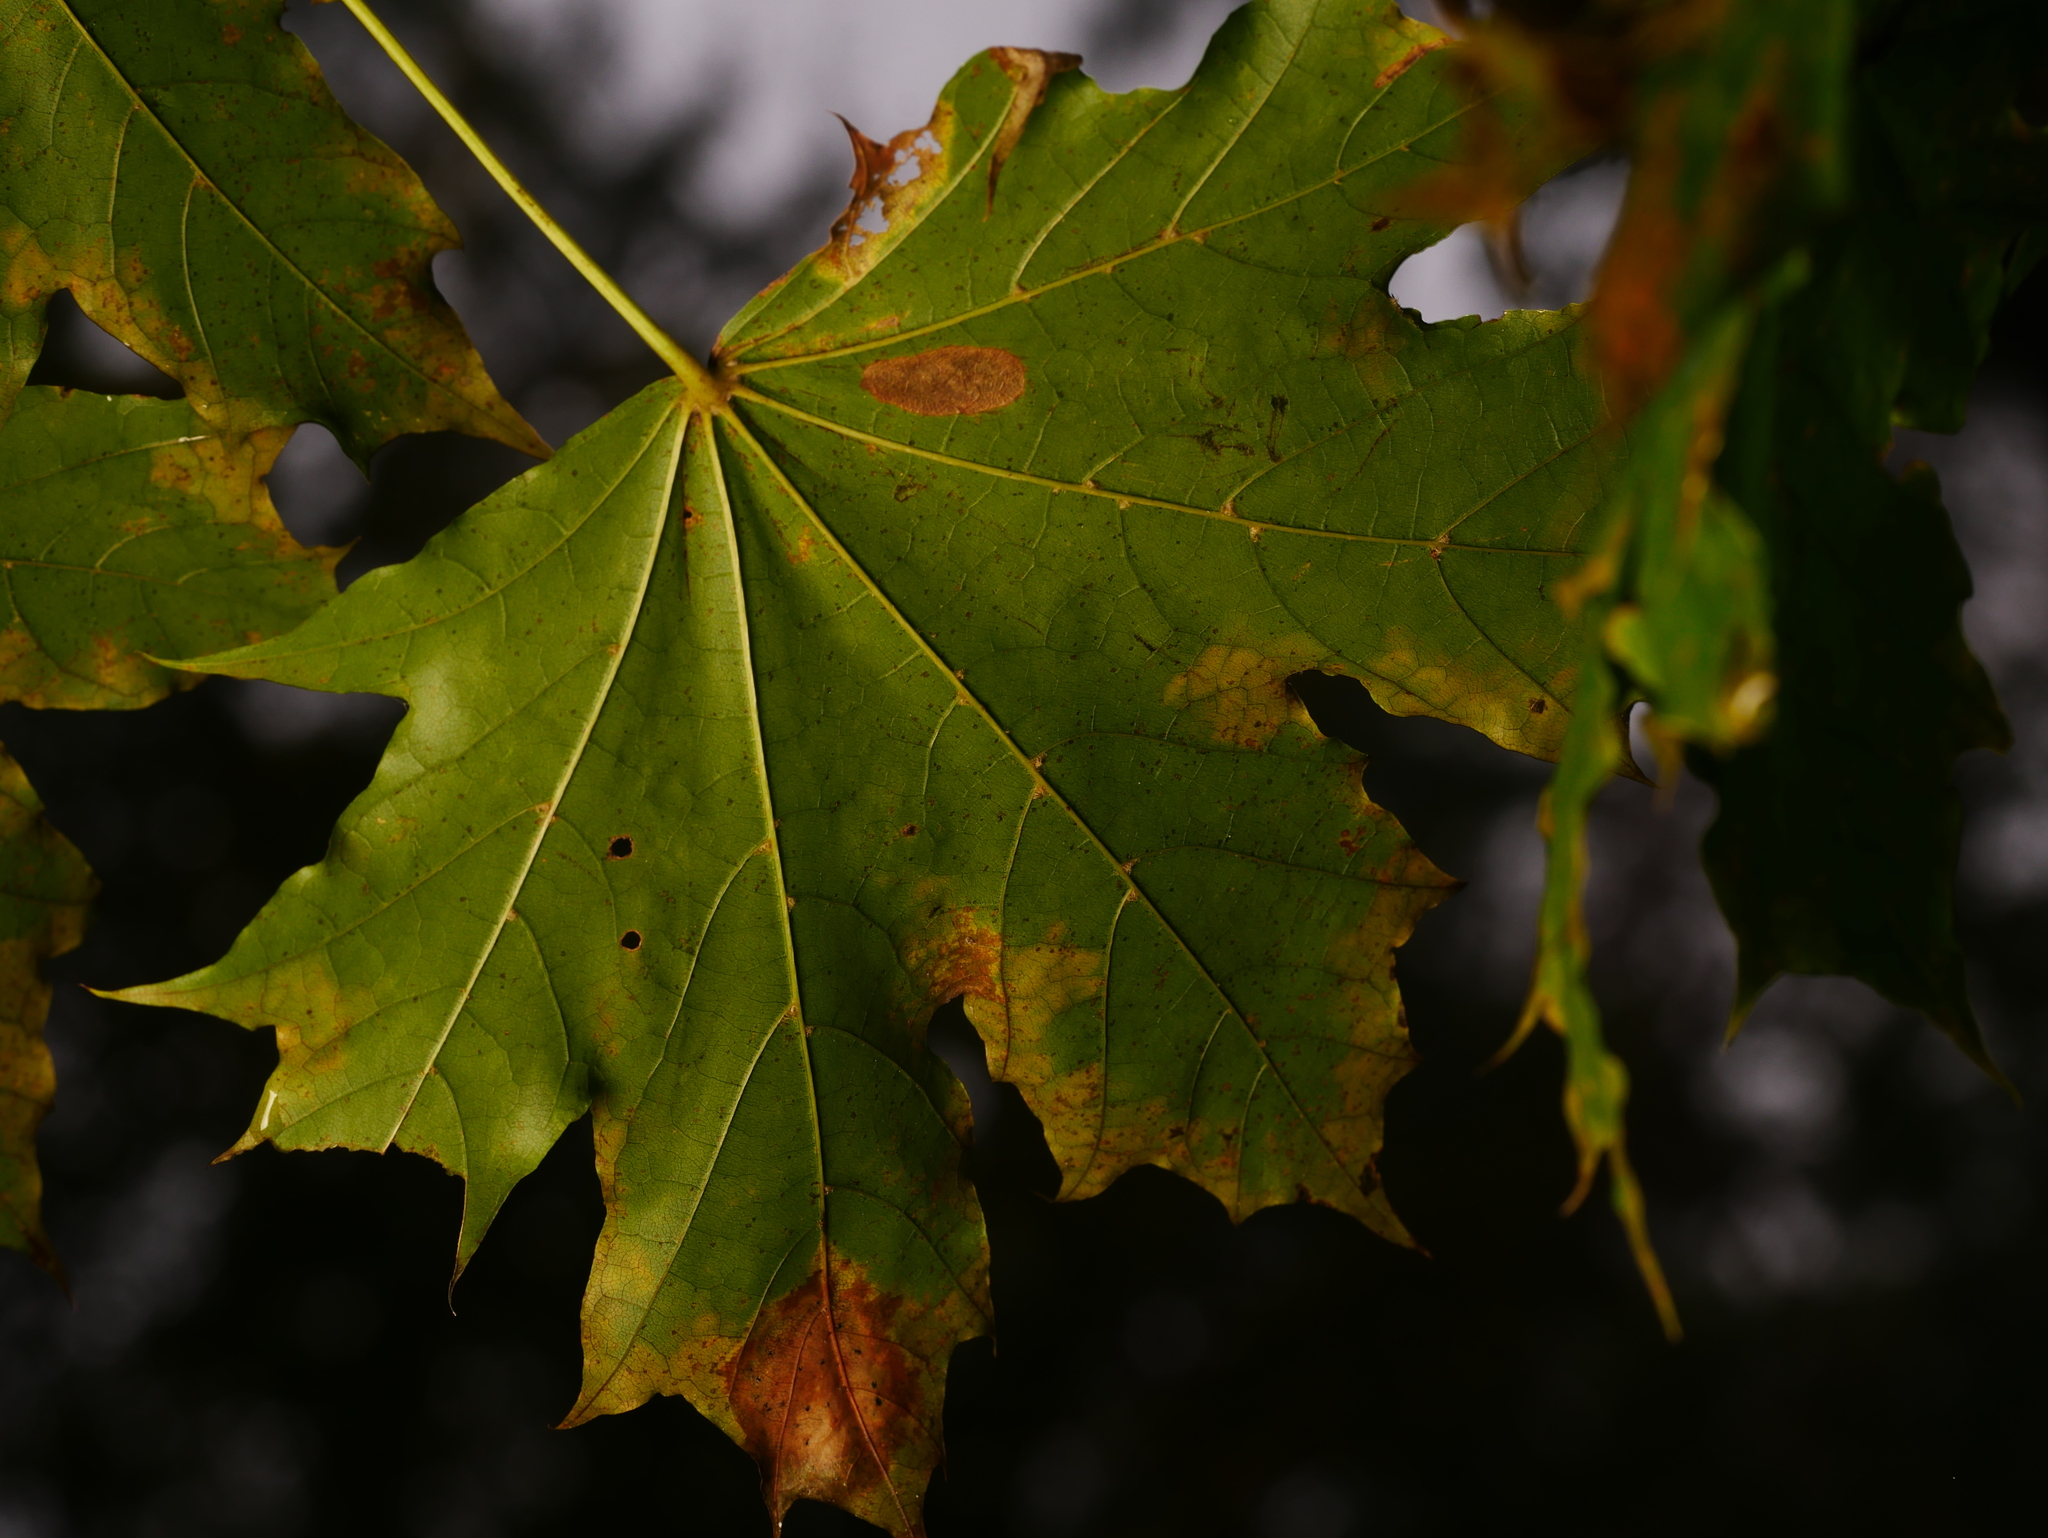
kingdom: Plantae
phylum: Tracheophyta
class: Magnoliopsida
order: Sapindales
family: Sapindaceae
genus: Acer
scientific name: Acer platanoides
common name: Norway maple
